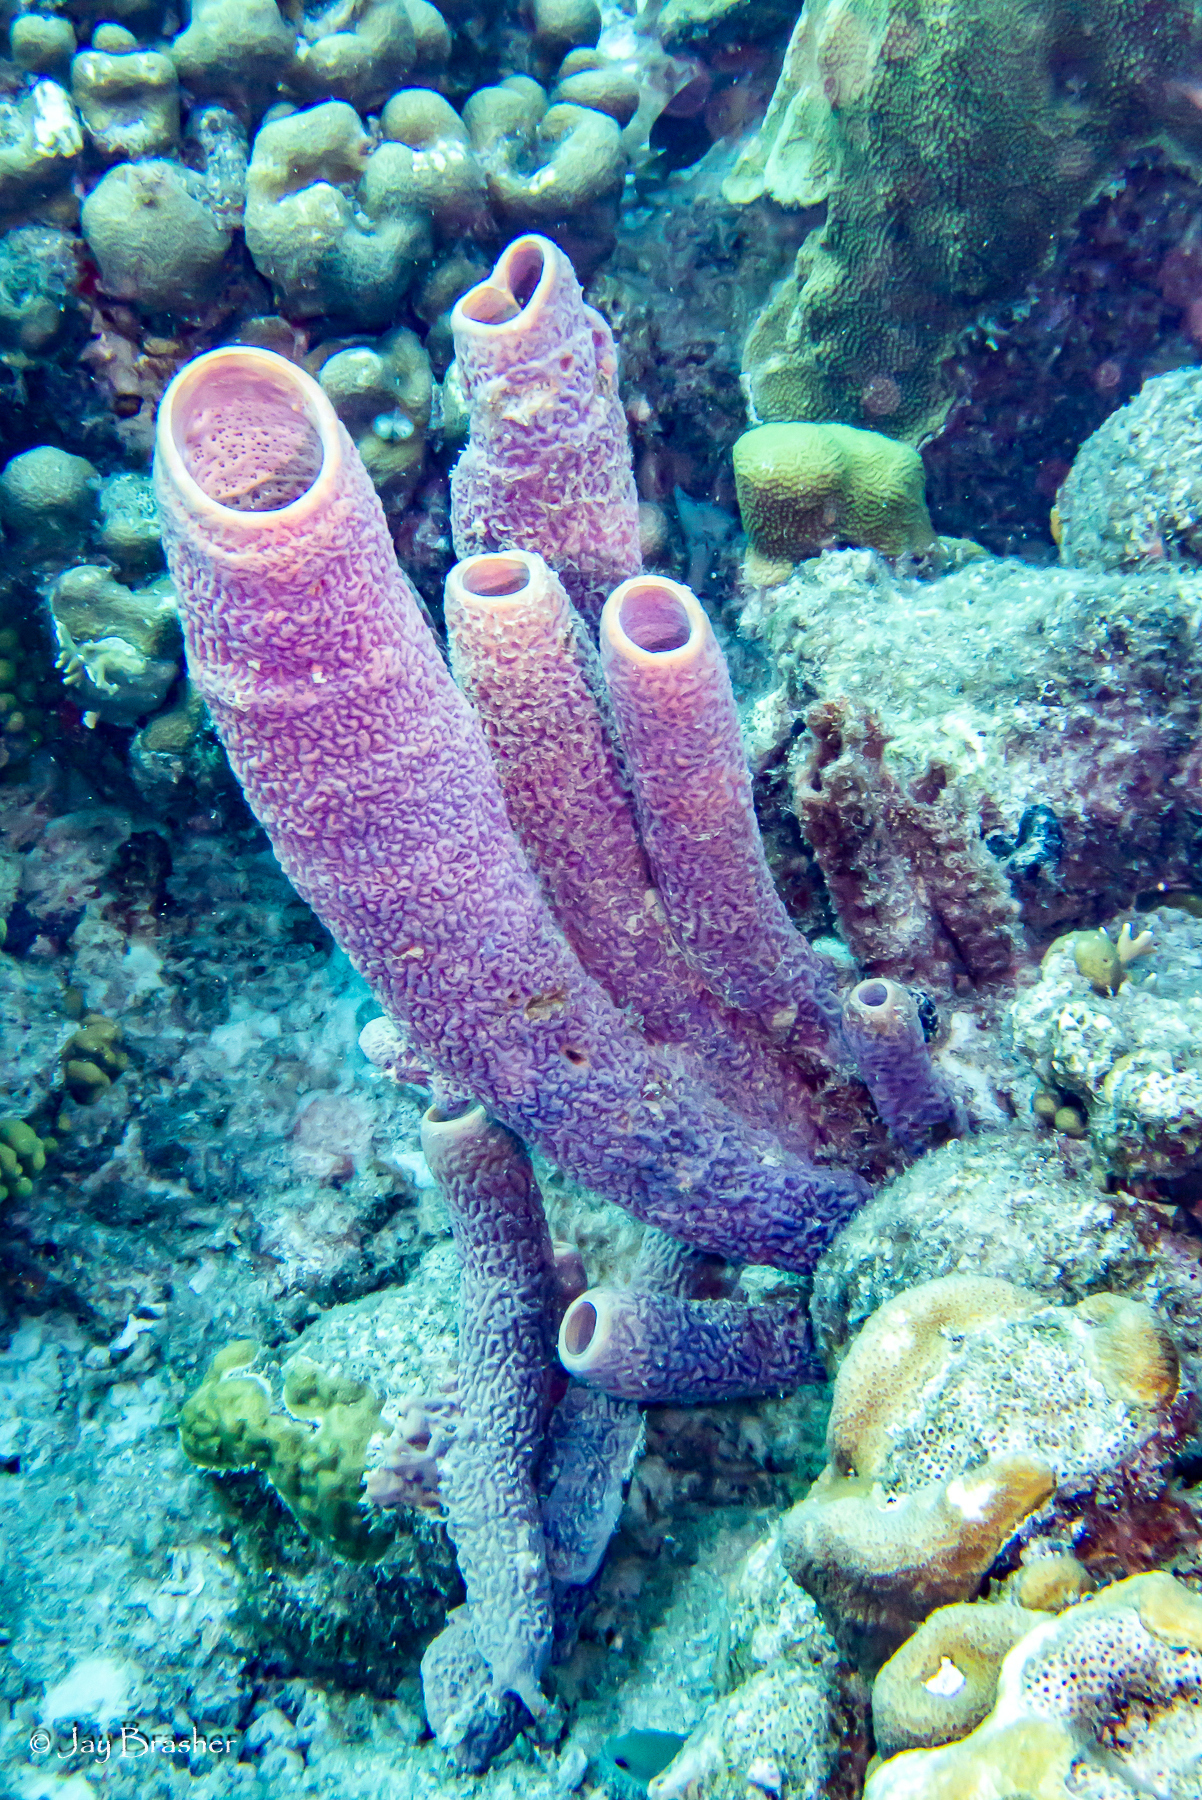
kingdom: Animalia
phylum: Porifera
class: Demospongiae
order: Verongiida
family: Aplysinidae
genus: Aplysina
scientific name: Aplysina archeri
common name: Stove-pipe sponge
